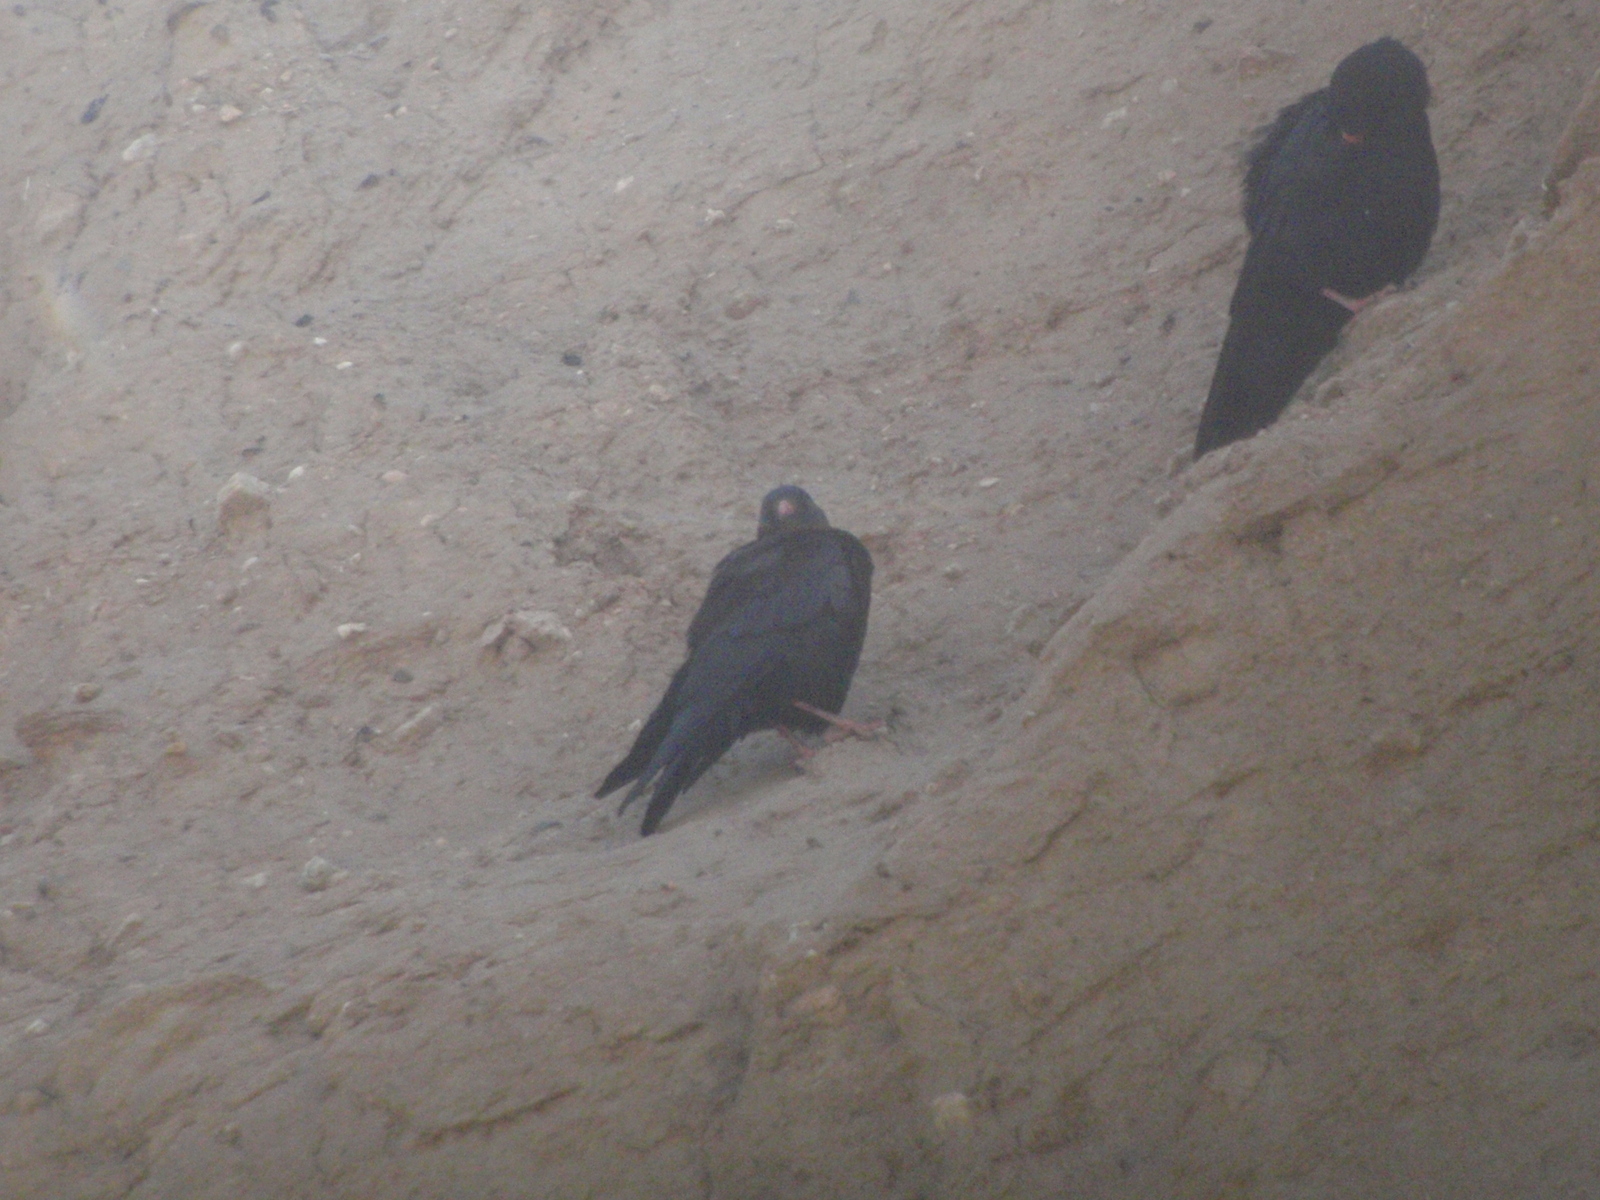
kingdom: Animalia
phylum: Chordata
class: Aves
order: Passeriformes
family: Corvidae
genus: Pyrrhocorax
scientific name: Pyrrhocorax pyrrhocorax
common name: Red-billed chough
